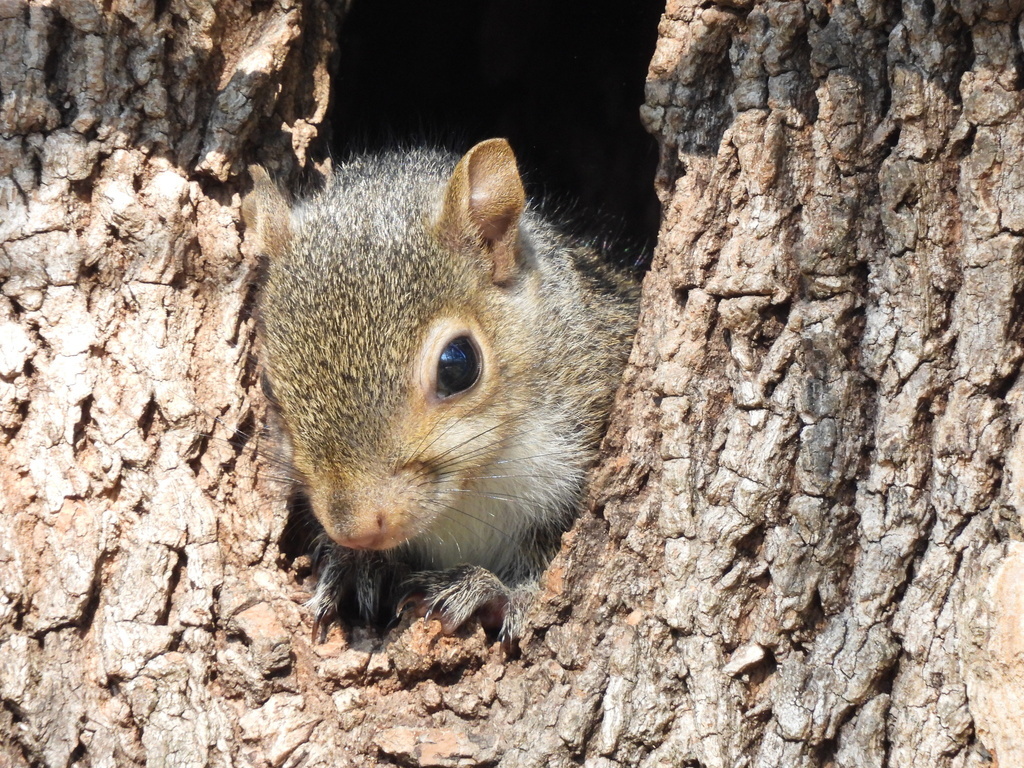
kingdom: Animalia
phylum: Chordata
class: Mammalia
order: Rodentia
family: Sciuridae
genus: Sciurus
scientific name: Sciurus carolinensis
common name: Eastern gray squirrel
